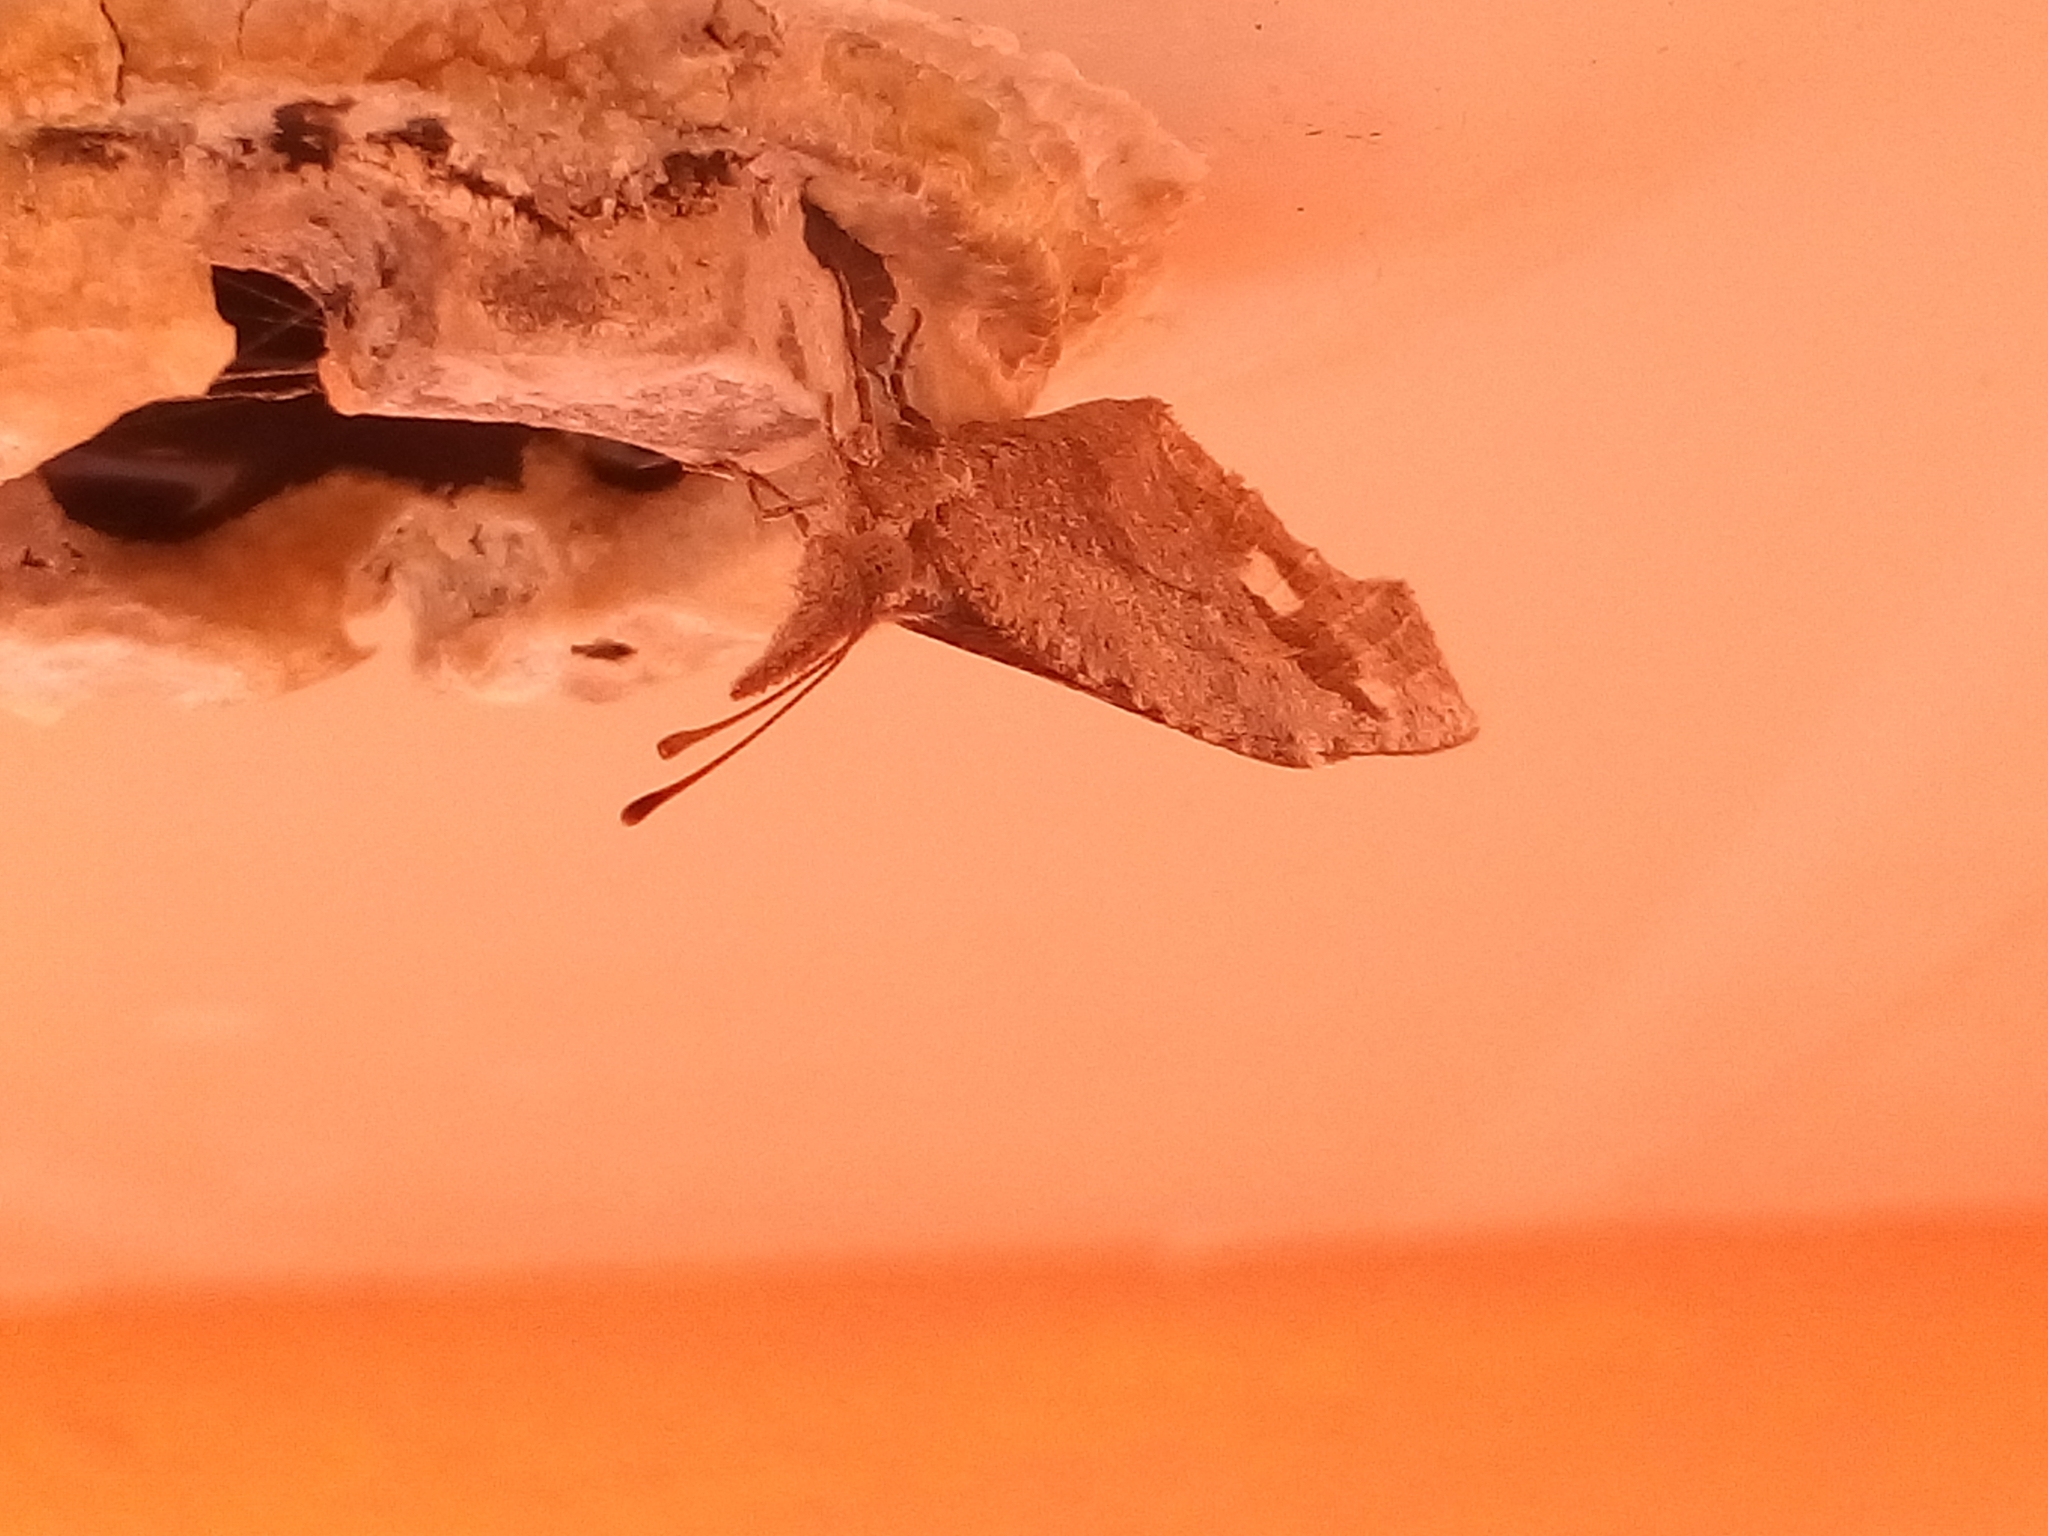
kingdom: Animalia
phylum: Arthropoda
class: Insecta
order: Lepidoptera
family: Nymphalidae
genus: Libytheana
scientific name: Libytheana carinenta
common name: American snout
